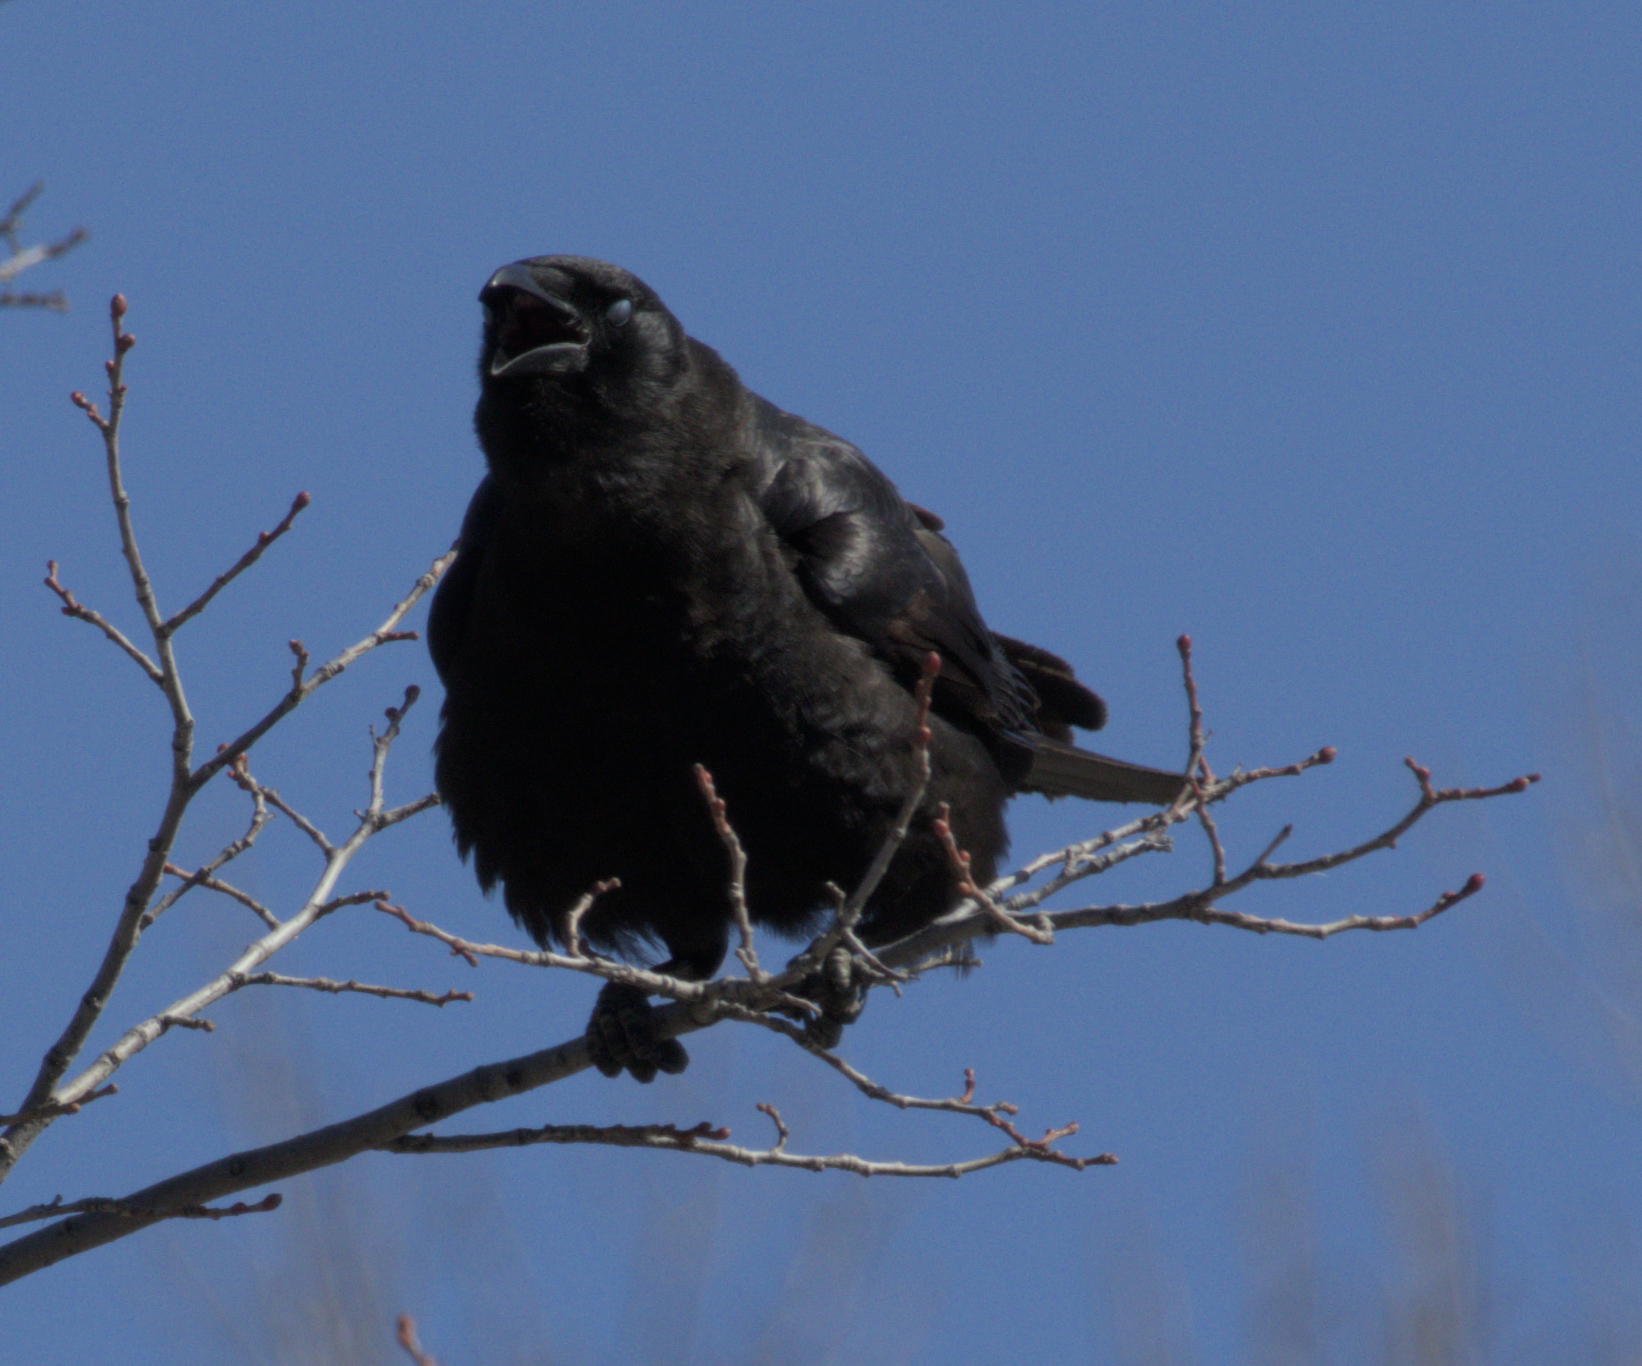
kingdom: Animalia
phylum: Chordata
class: Aves
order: Passeriformes
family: Corvidae
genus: Corvus
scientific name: Corvus brachyrhynchos
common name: American crow
